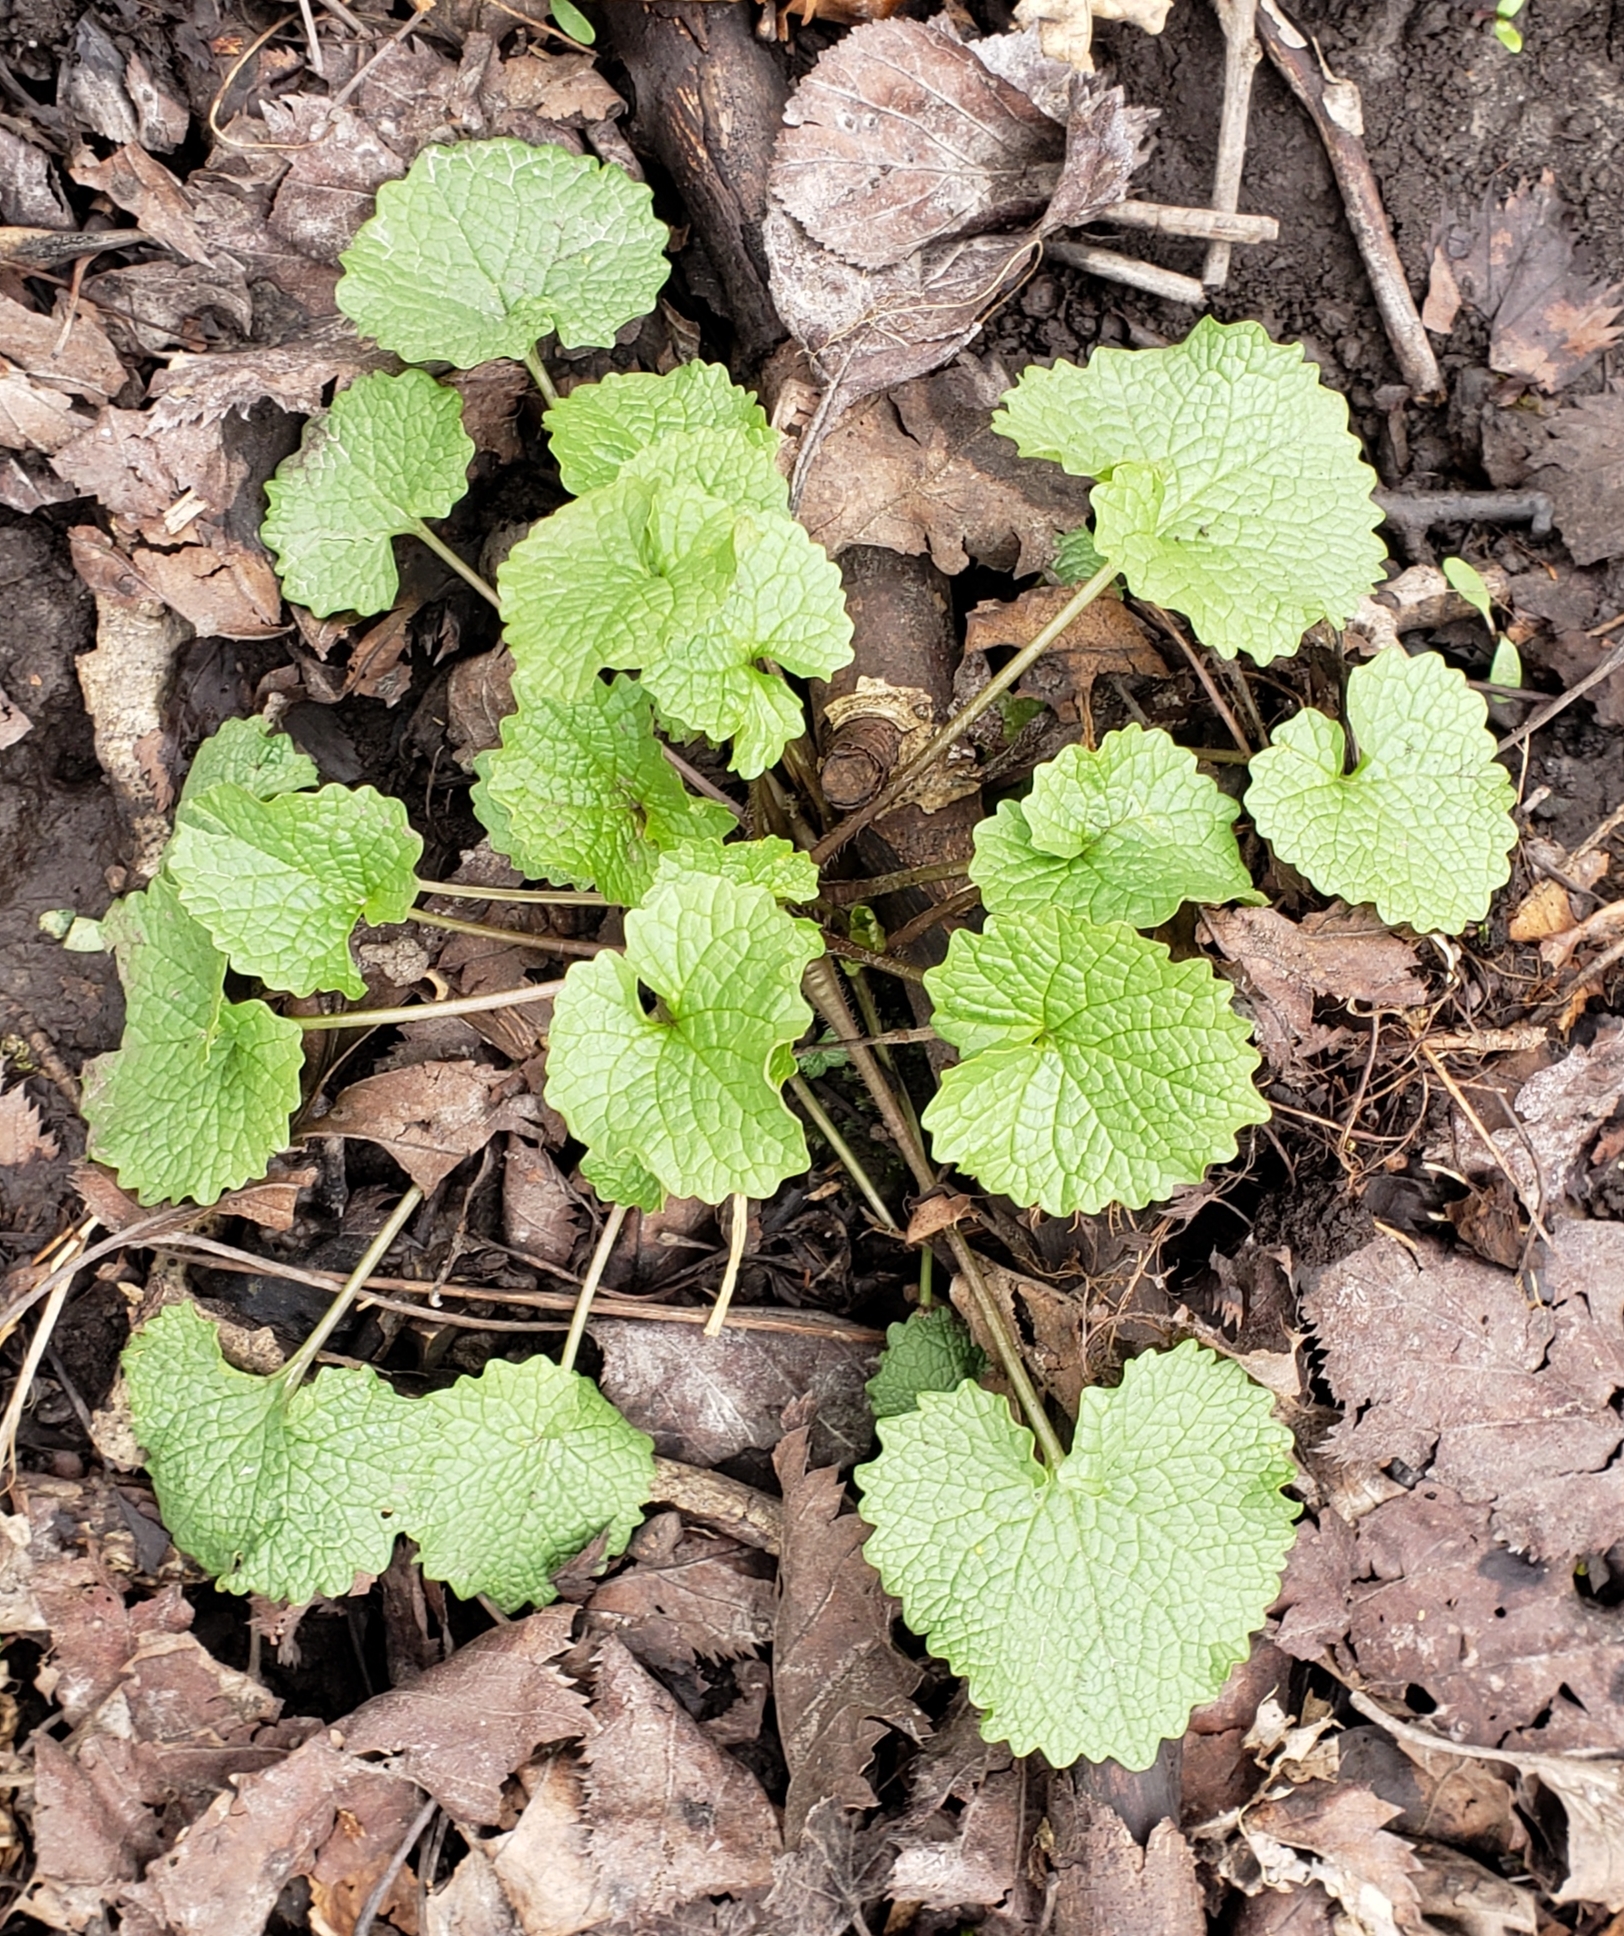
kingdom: Plantae
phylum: Tracheophyta
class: Magnoliopsida
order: Brassicales
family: Brassicaceae
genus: Alliaria
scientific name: Alliaria petiolata
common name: Garlic mustard
